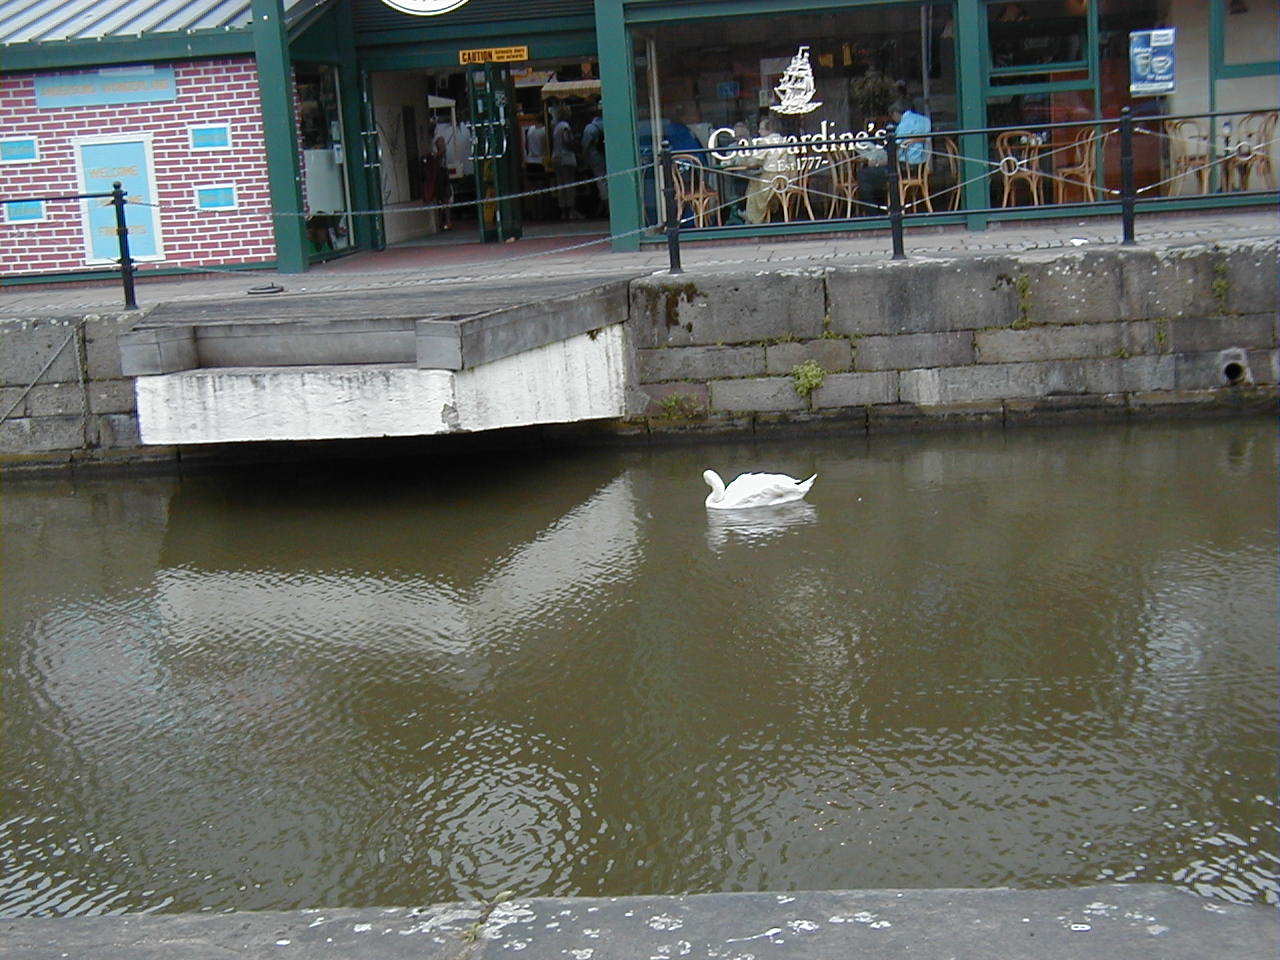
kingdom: Animalia
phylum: Chordata
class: Aves
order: Anseriformes
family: Anatidae
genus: Cygnus
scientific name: Cygnus olor
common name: Mute swan
